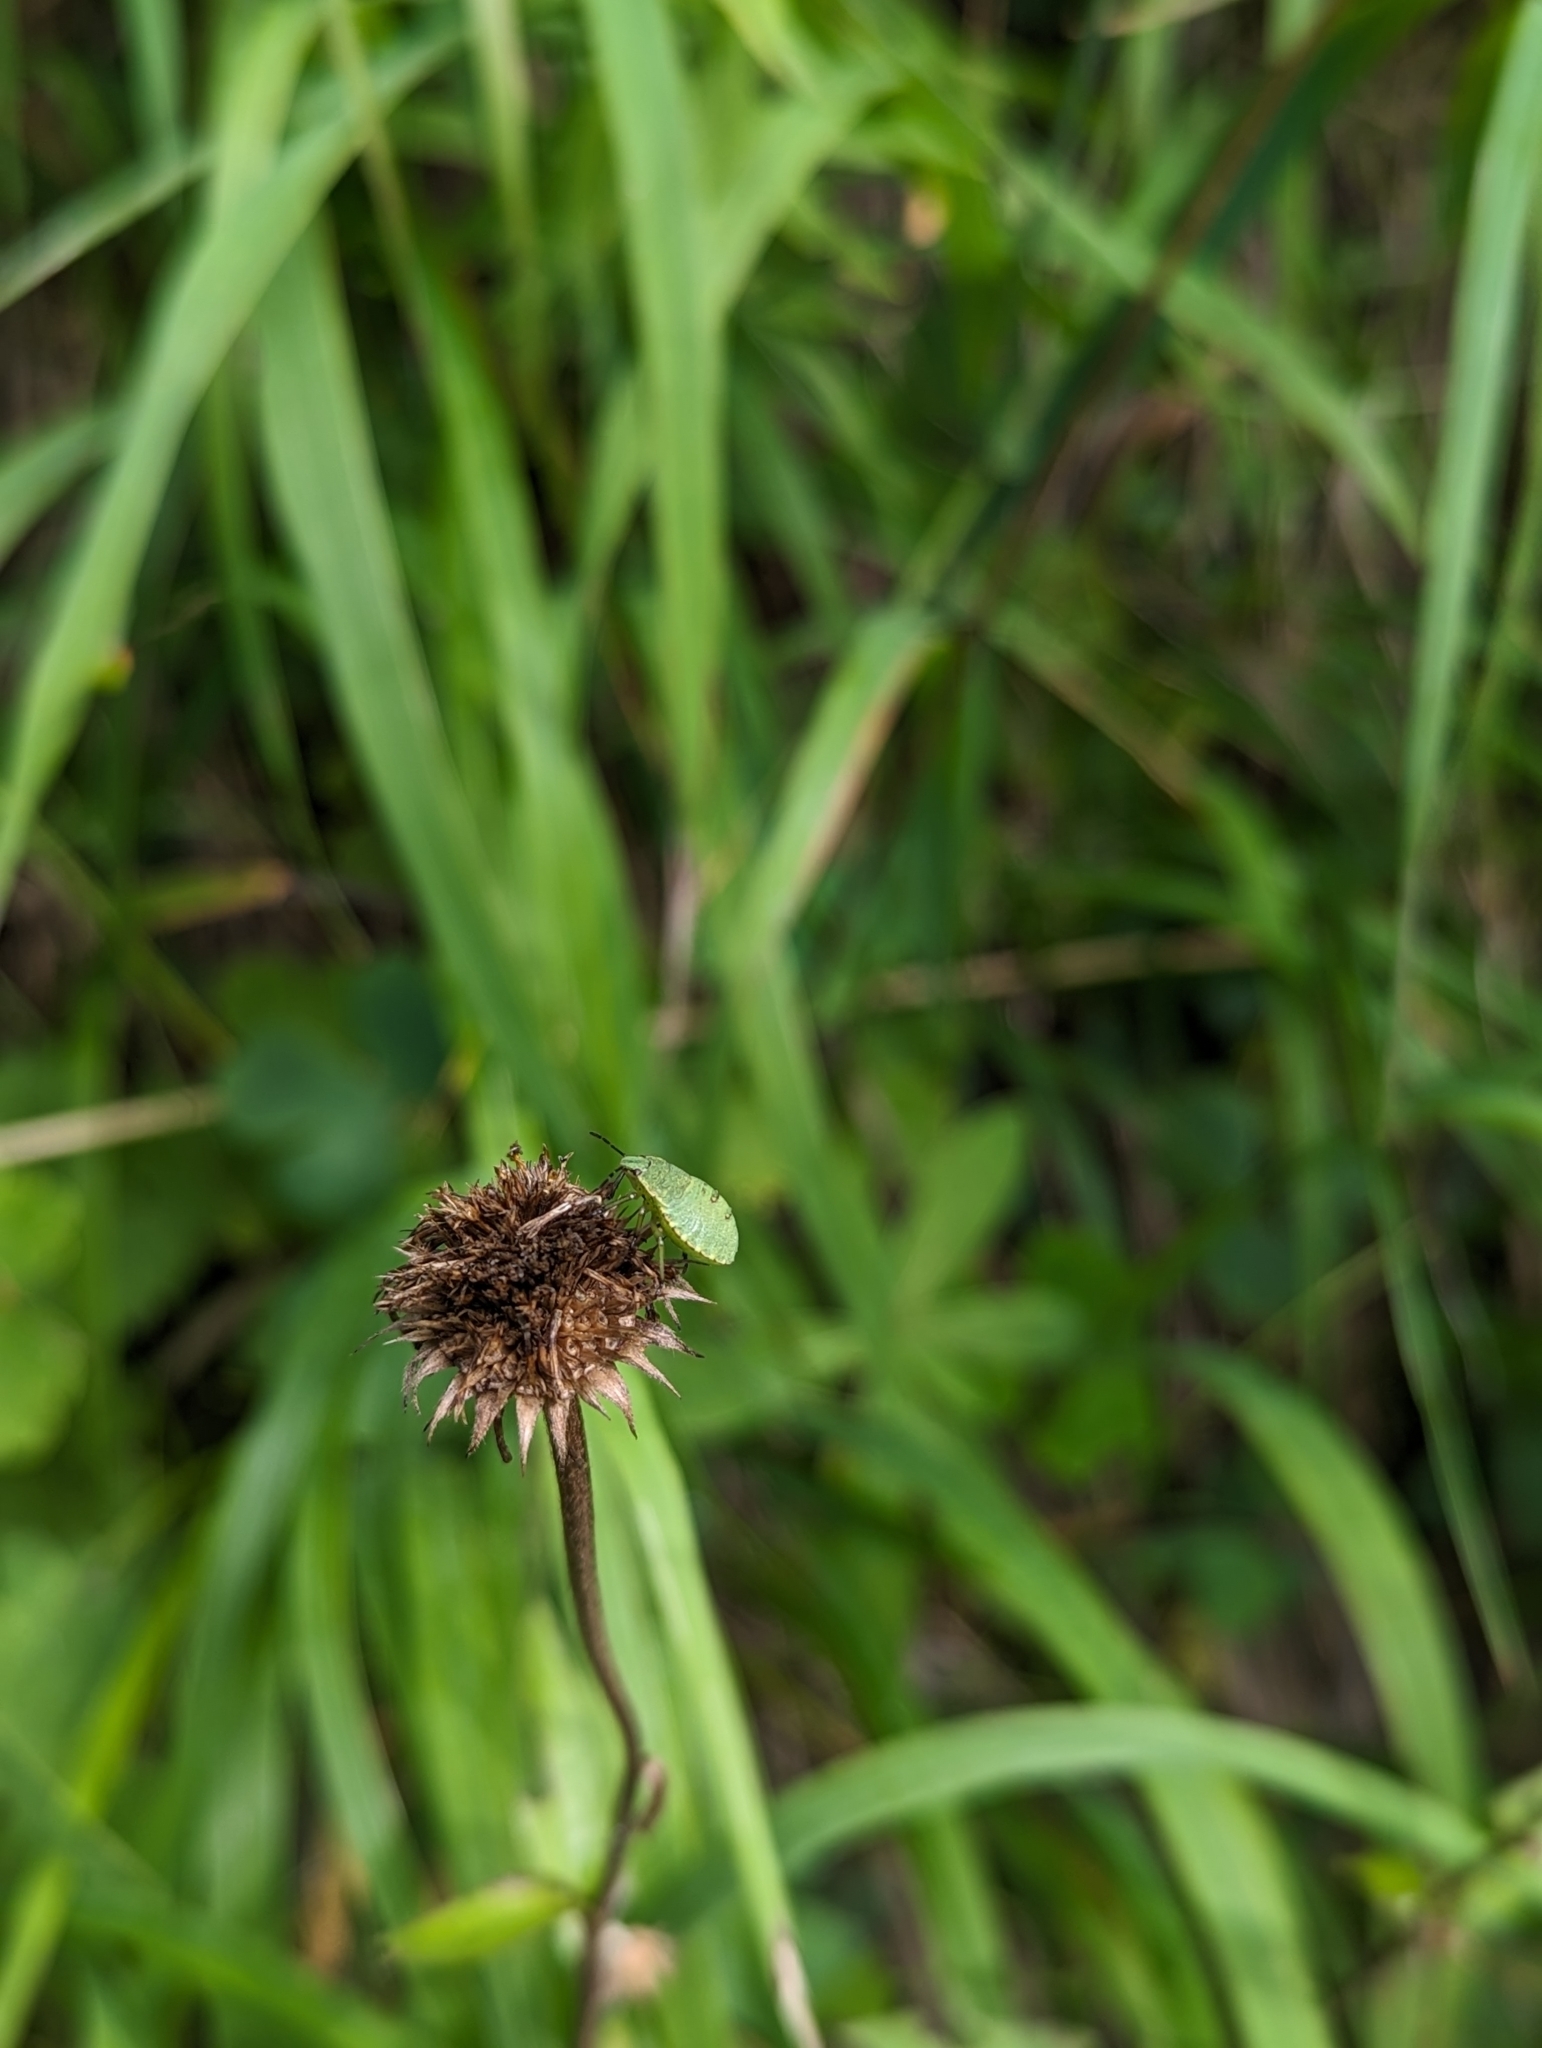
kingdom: Animalia
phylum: Arthropoda
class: Insecta
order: Hemiptera
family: Pentatomidae
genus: Palomena
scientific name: Palomena prasina
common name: Green shieldbug
